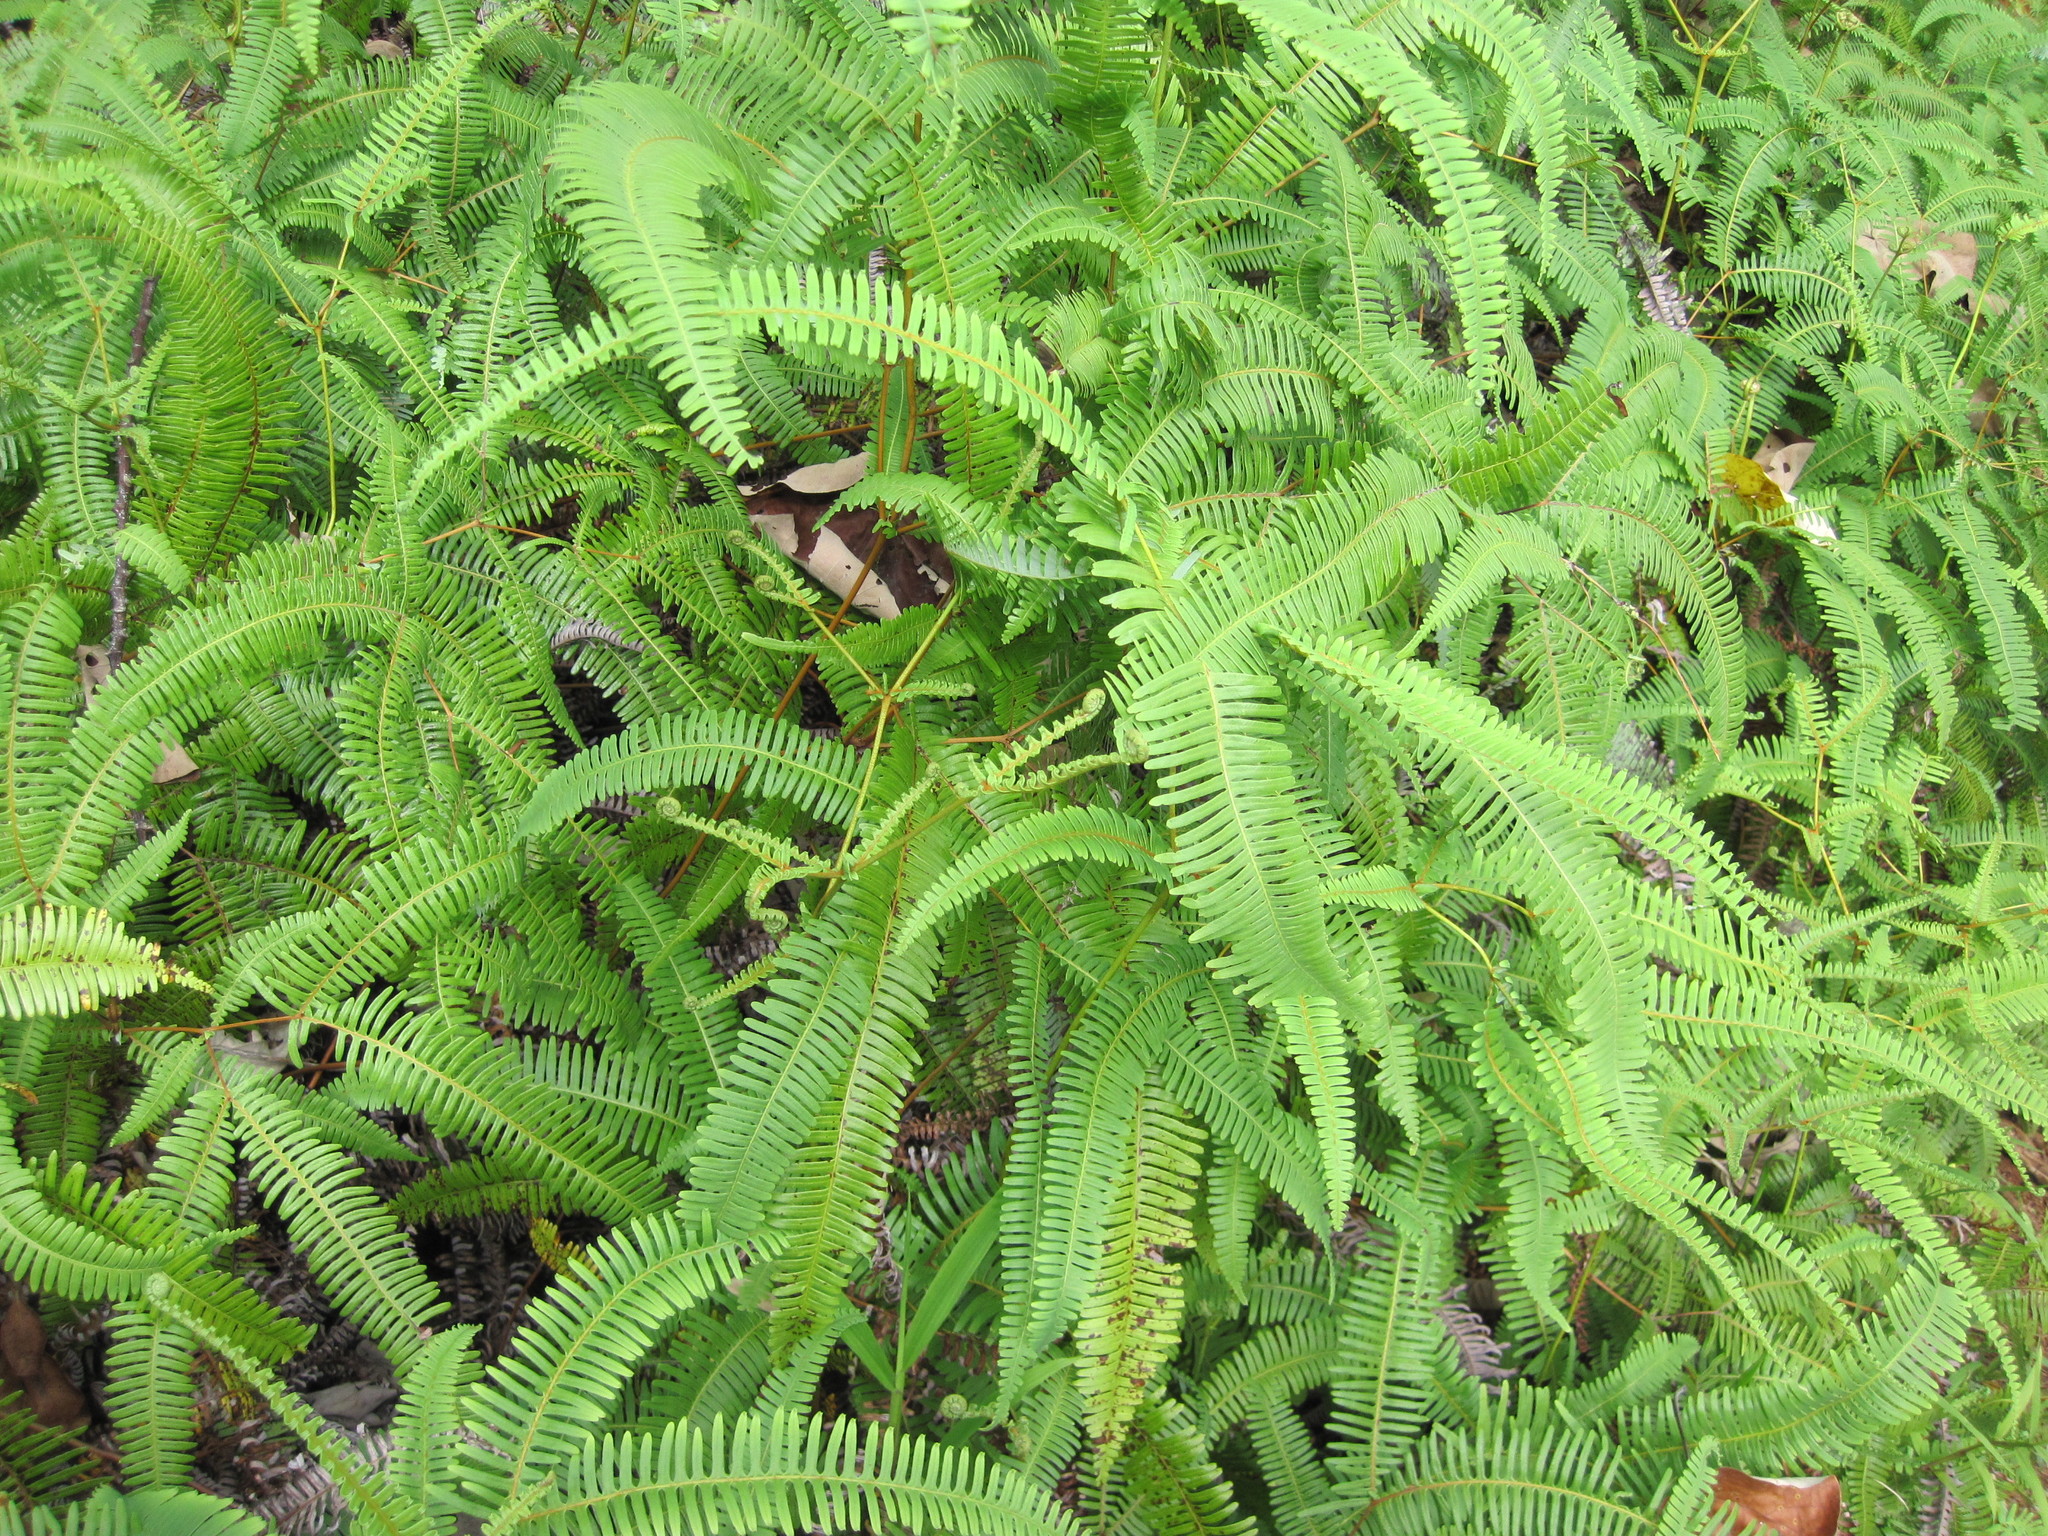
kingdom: Plantae
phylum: Tracheophyta
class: Polypodiopsida
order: Gleicheniales
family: Gleicheniaceae
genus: Dicranopteris
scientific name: Dicranopteris linearis
